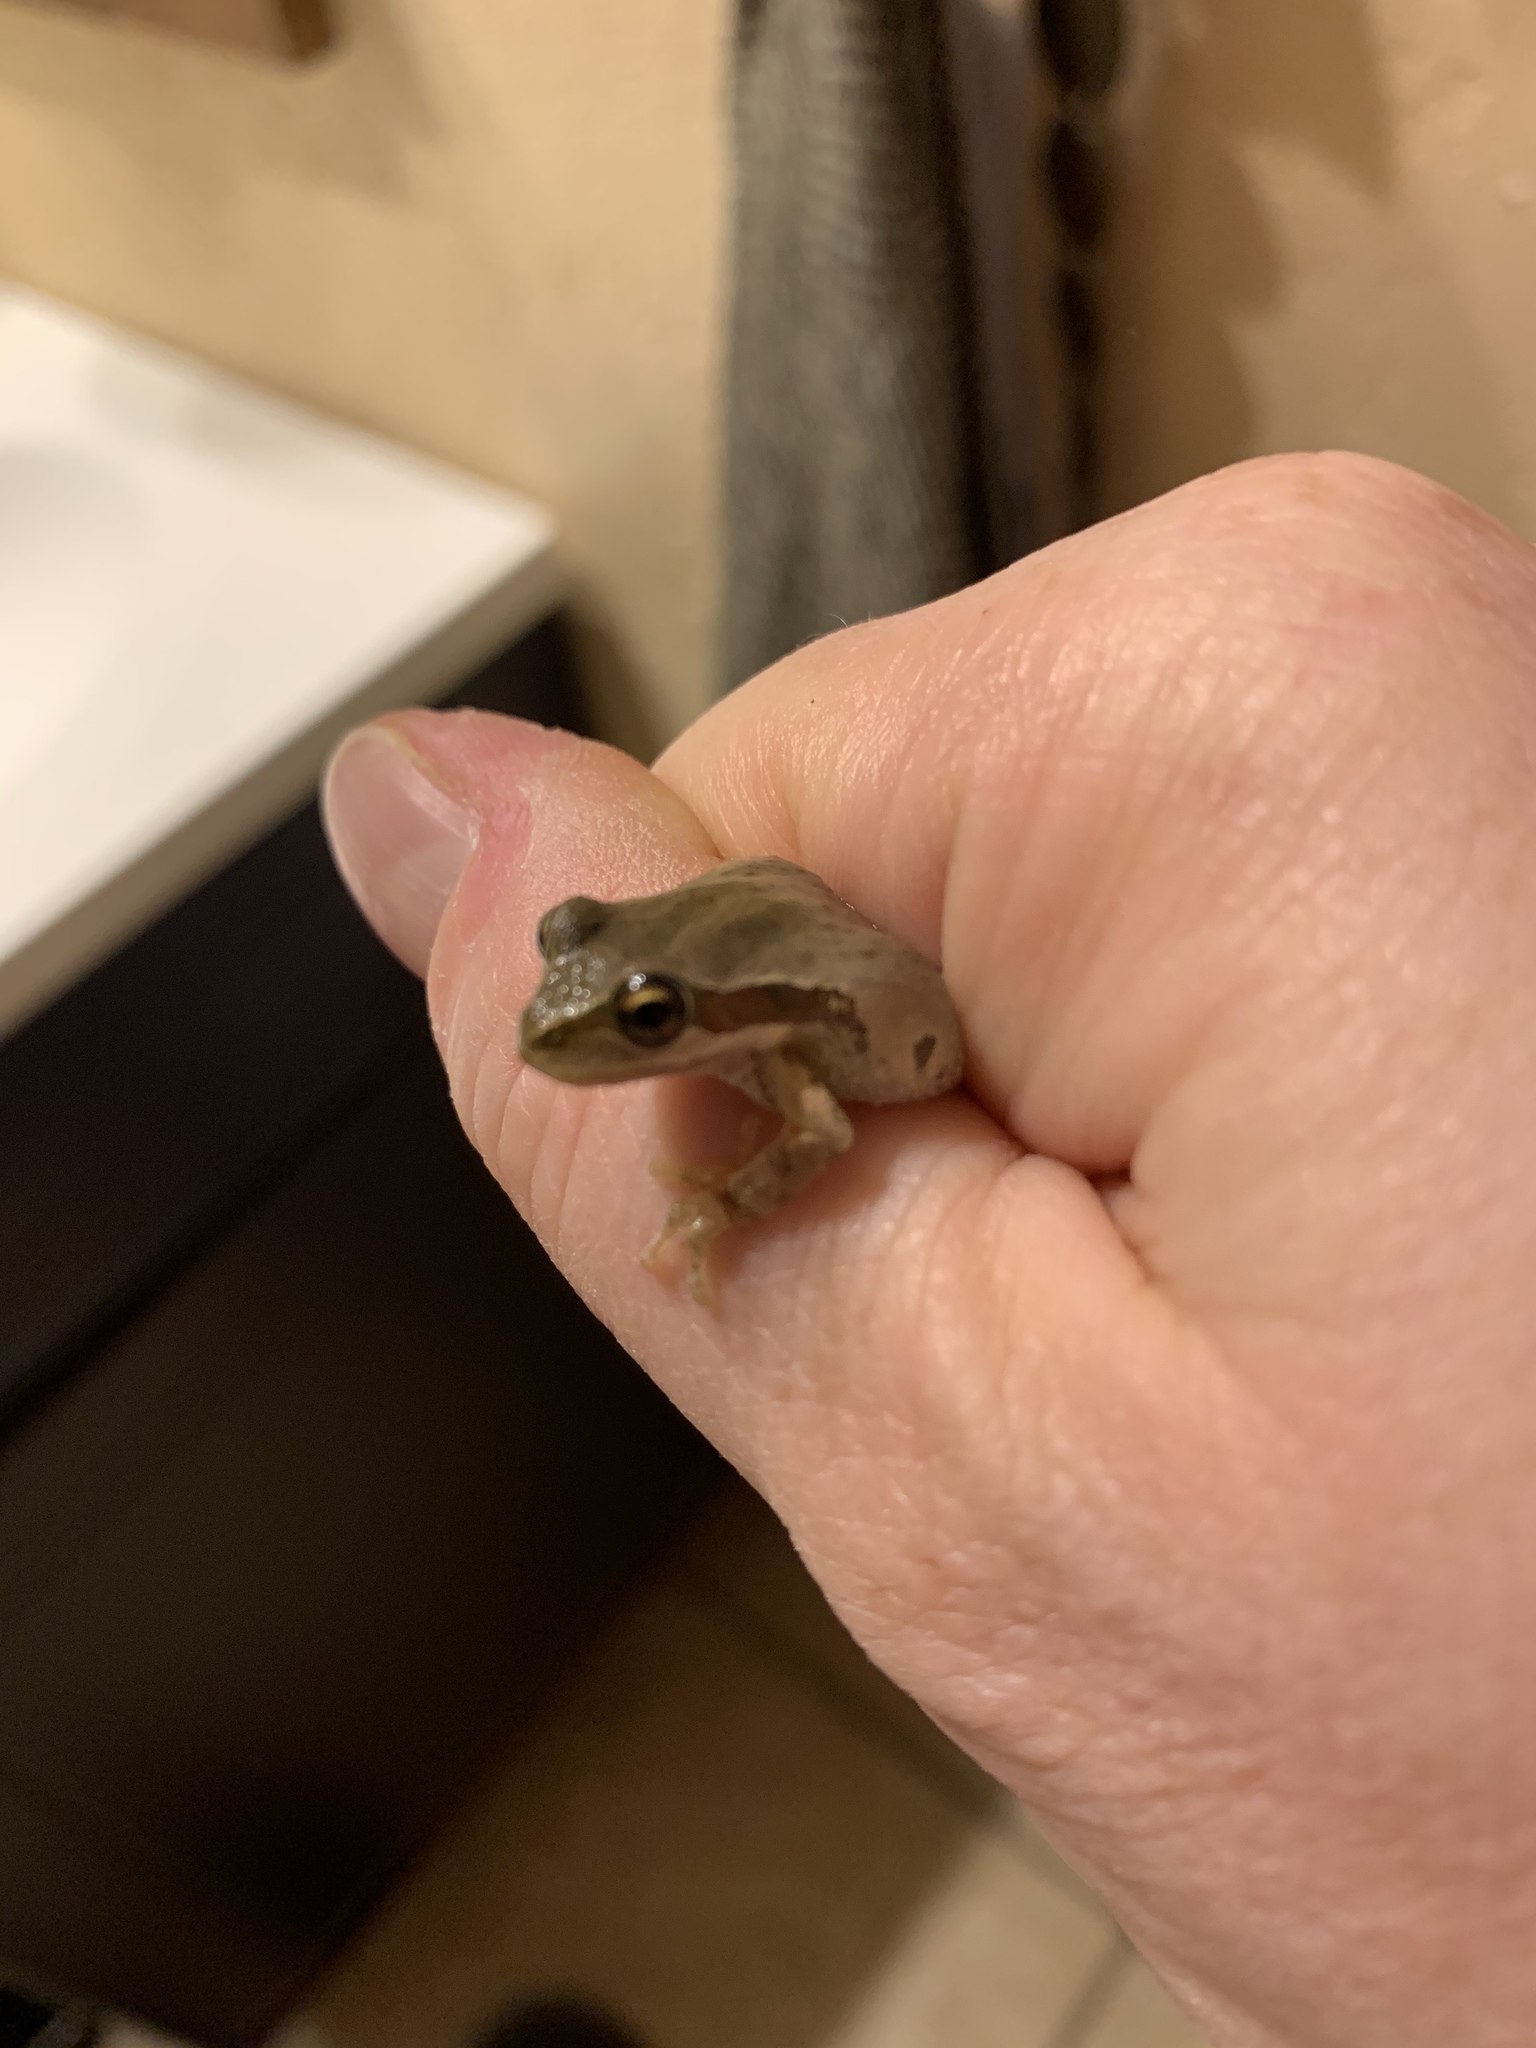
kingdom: Animalia
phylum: Chordata
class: Amphibia
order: Anura
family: Hylidae
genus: Pseudacris
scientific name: Pseudacris regilla
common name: Pacific chorus frog
